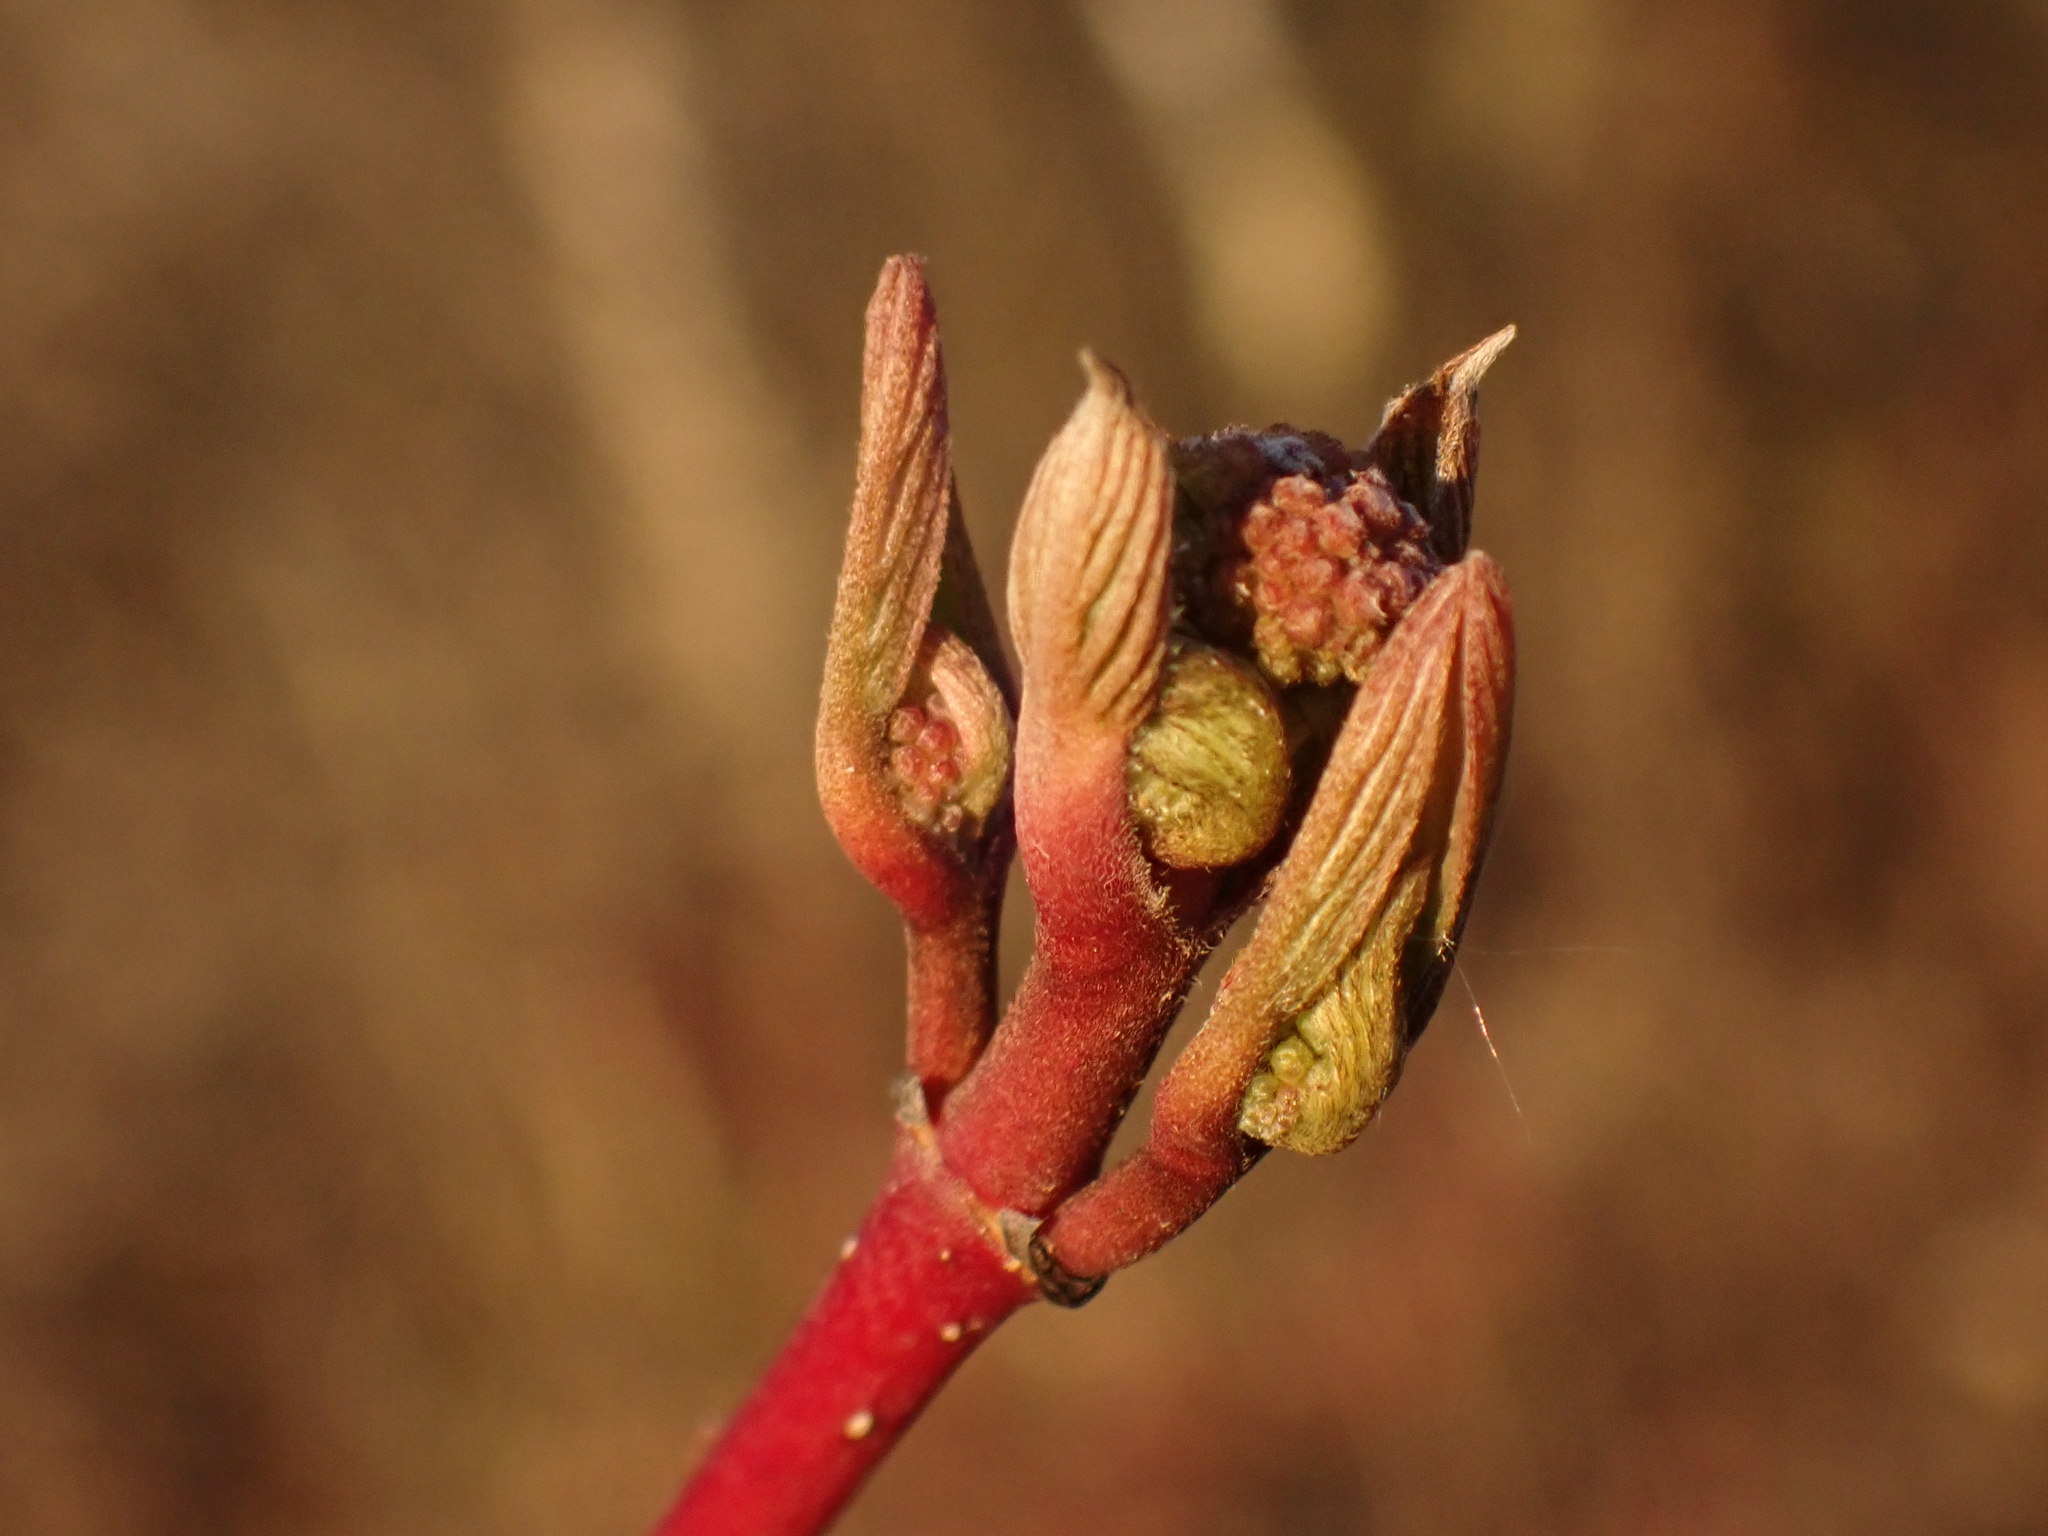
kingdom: Plantae
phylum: Tracheophyta
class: Magnoliopsida
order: Cornales
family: Cornaceae
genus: Cornus
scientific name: Cornus sericea
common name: Red-osier dogwood
